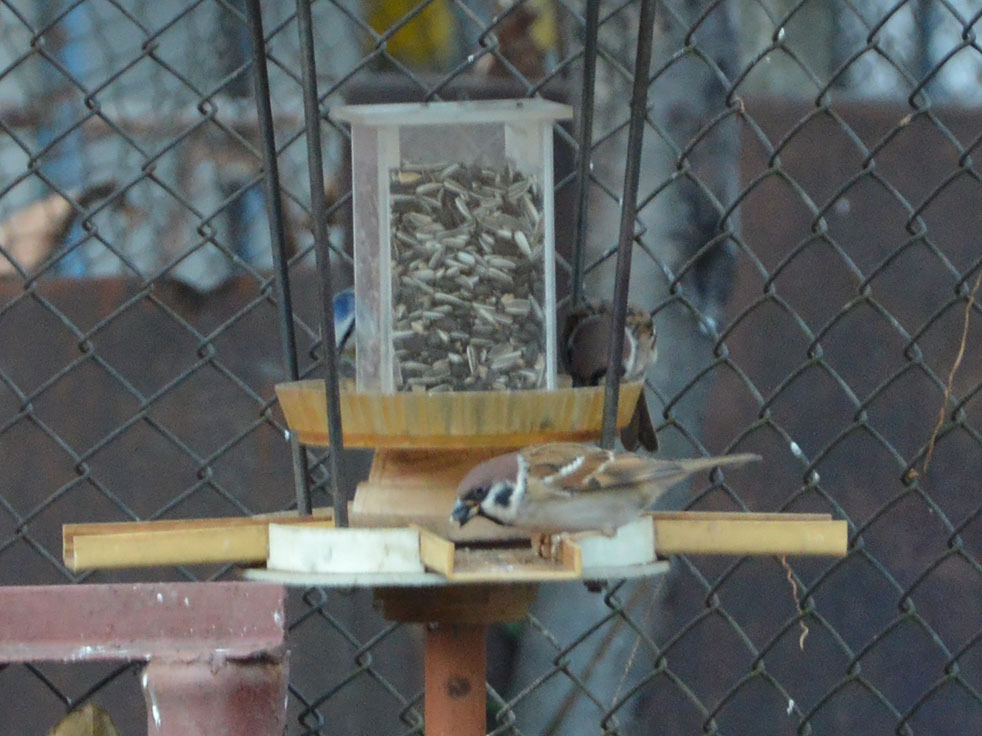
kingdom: Animalia
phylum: Chordata
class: Aves
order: Passeriformes
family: Passeridae
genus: Passer
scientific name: Passer montanus
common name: Eurasian tree sparrow
